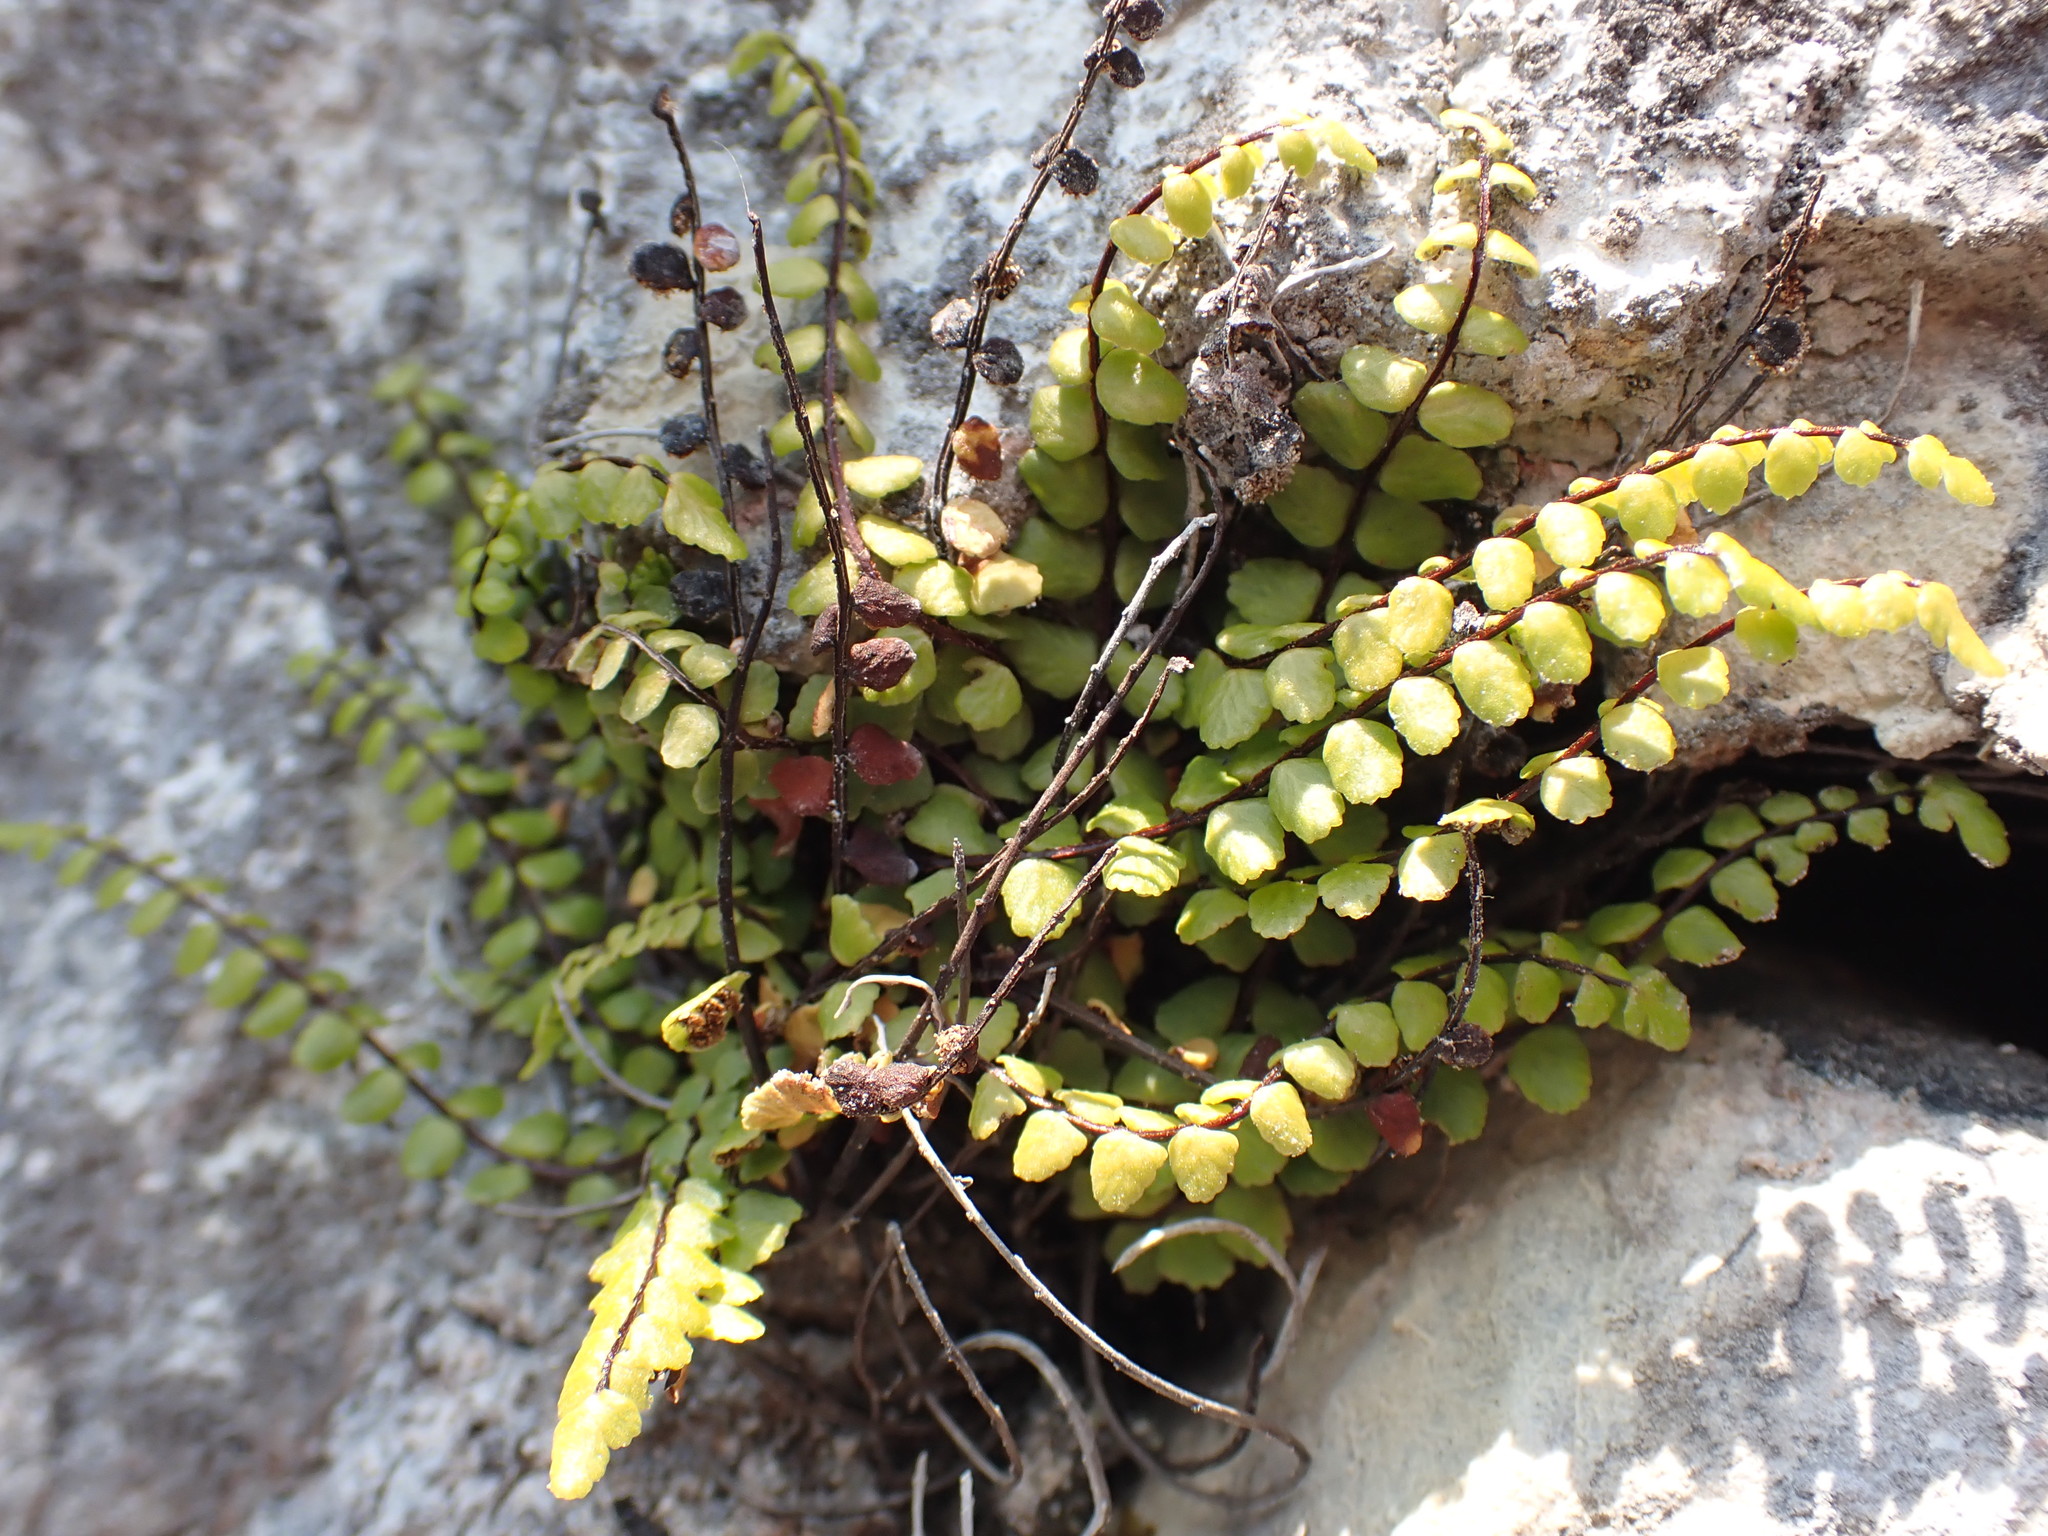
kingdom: Plantae
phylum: Tracheophyta
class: Polypodiopsida
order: Polypodiales
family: Aspleniaceae
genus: Asplenium
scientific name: Asplenium trichomanes
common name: Maidenhair spleenwort
